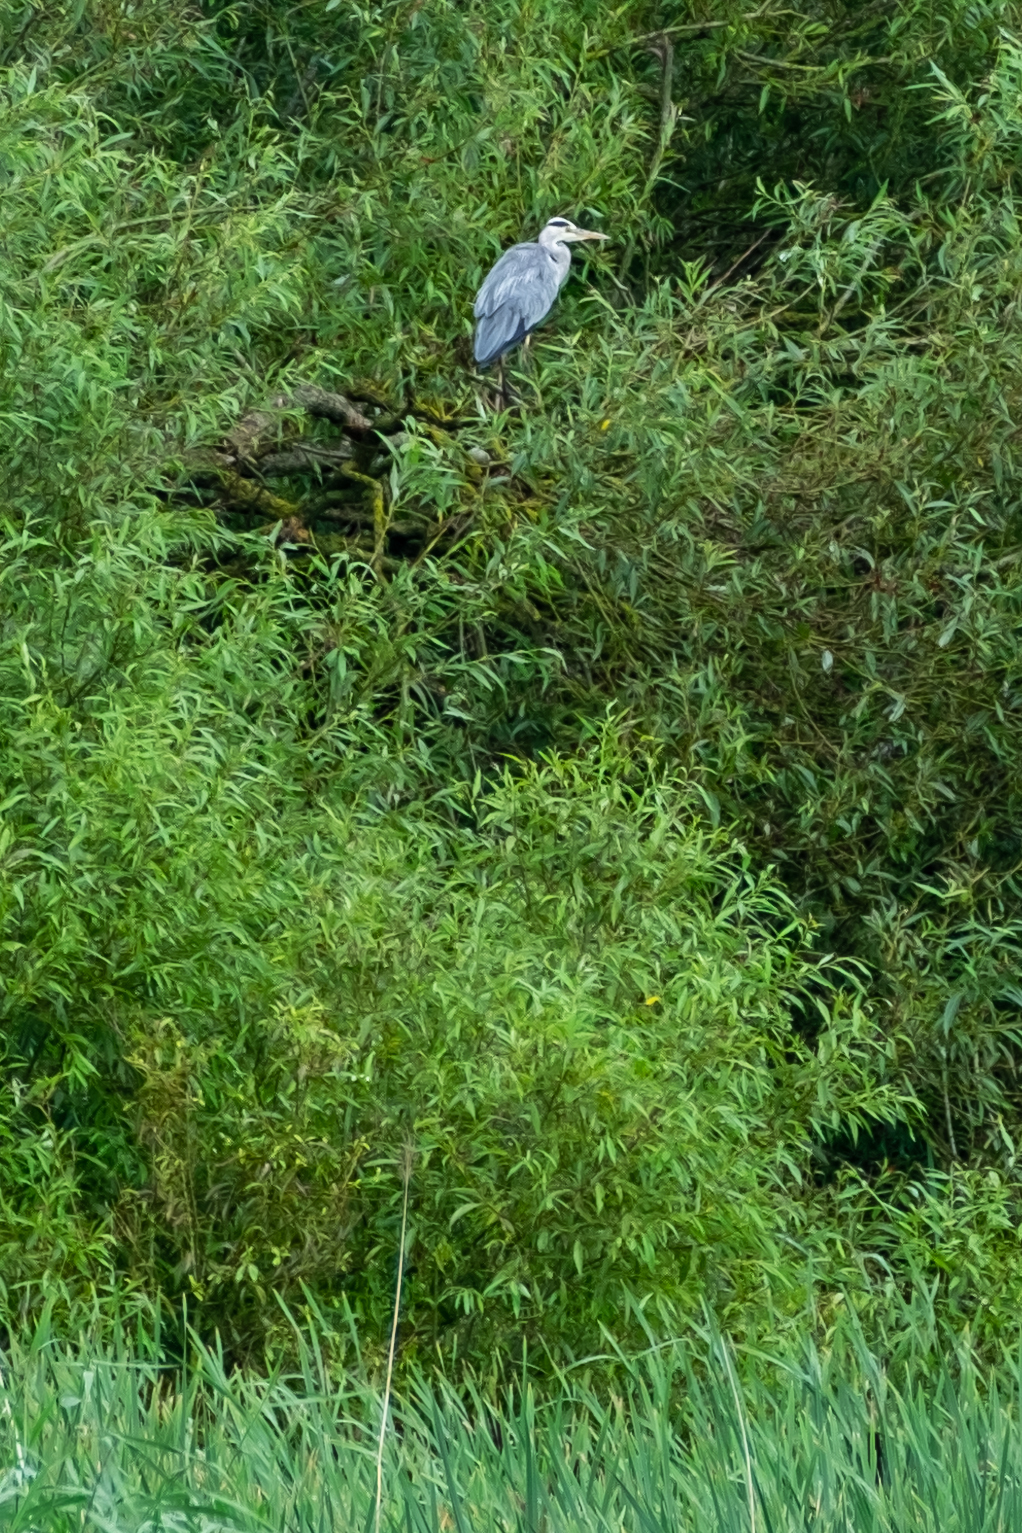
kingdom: Animalia
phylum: Chordata
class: Aves
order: Pelecaniformes
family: Ardeidae
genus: Ardea
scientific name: Ardea cinerea
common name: Grey heron
